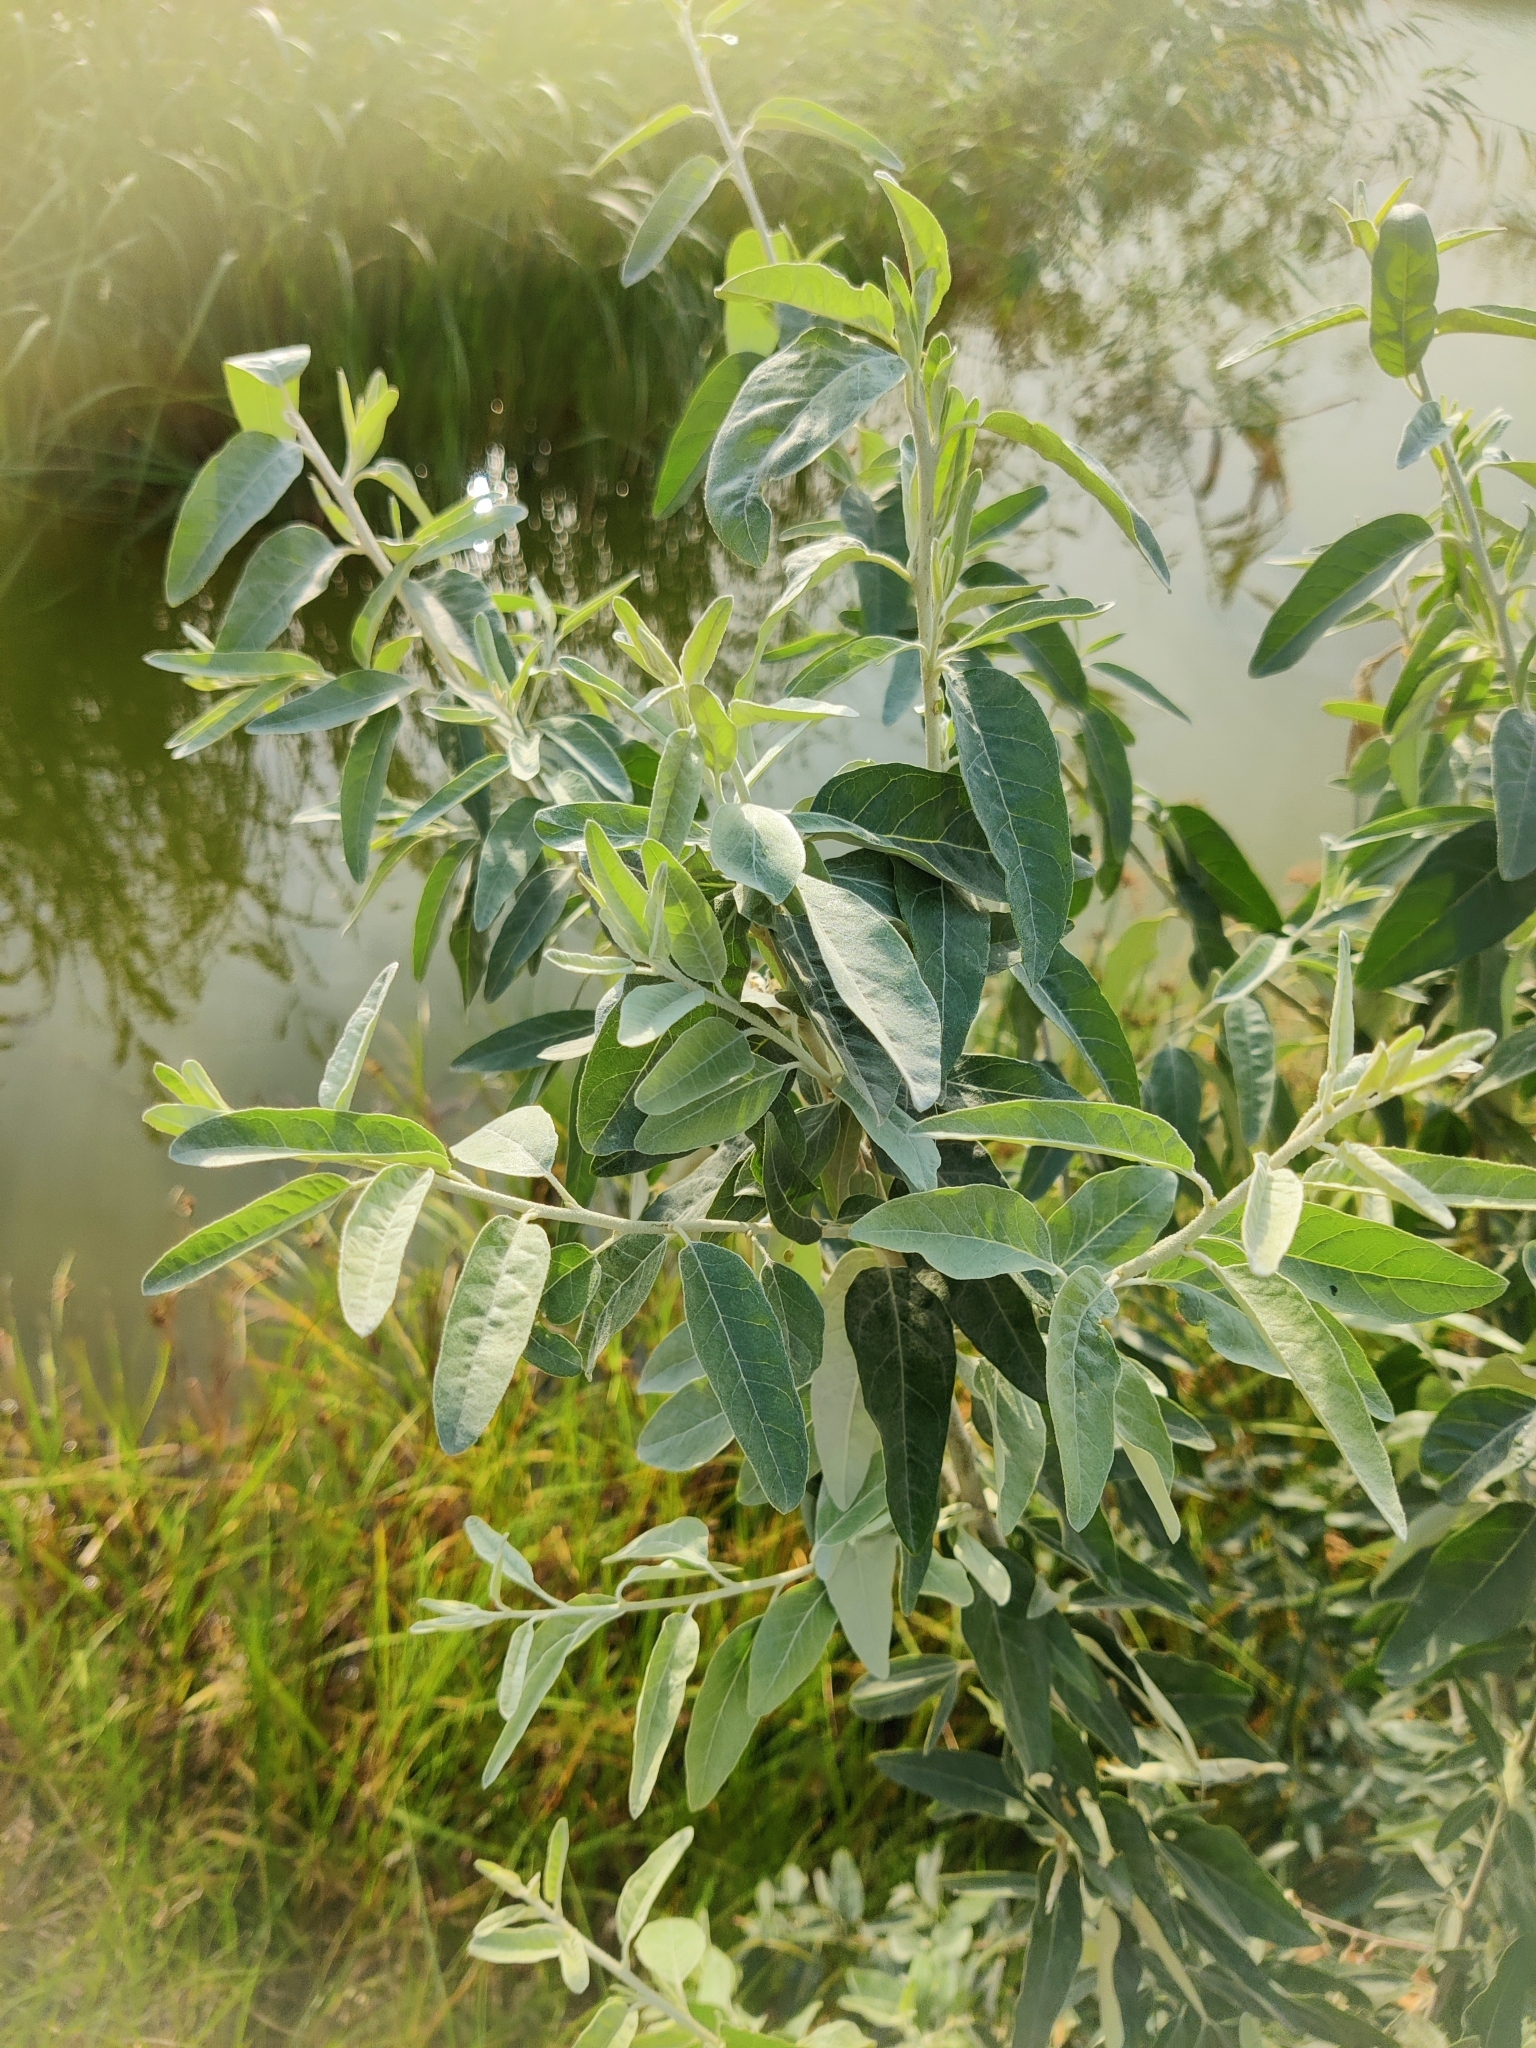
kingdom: Plantae
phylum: Tracheophyta
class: Magnoliopsida
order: Rosales
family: Elaeagnaceae
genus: Elaeagnus
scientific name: Elaeagnus angustifolia
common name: Russian olive
